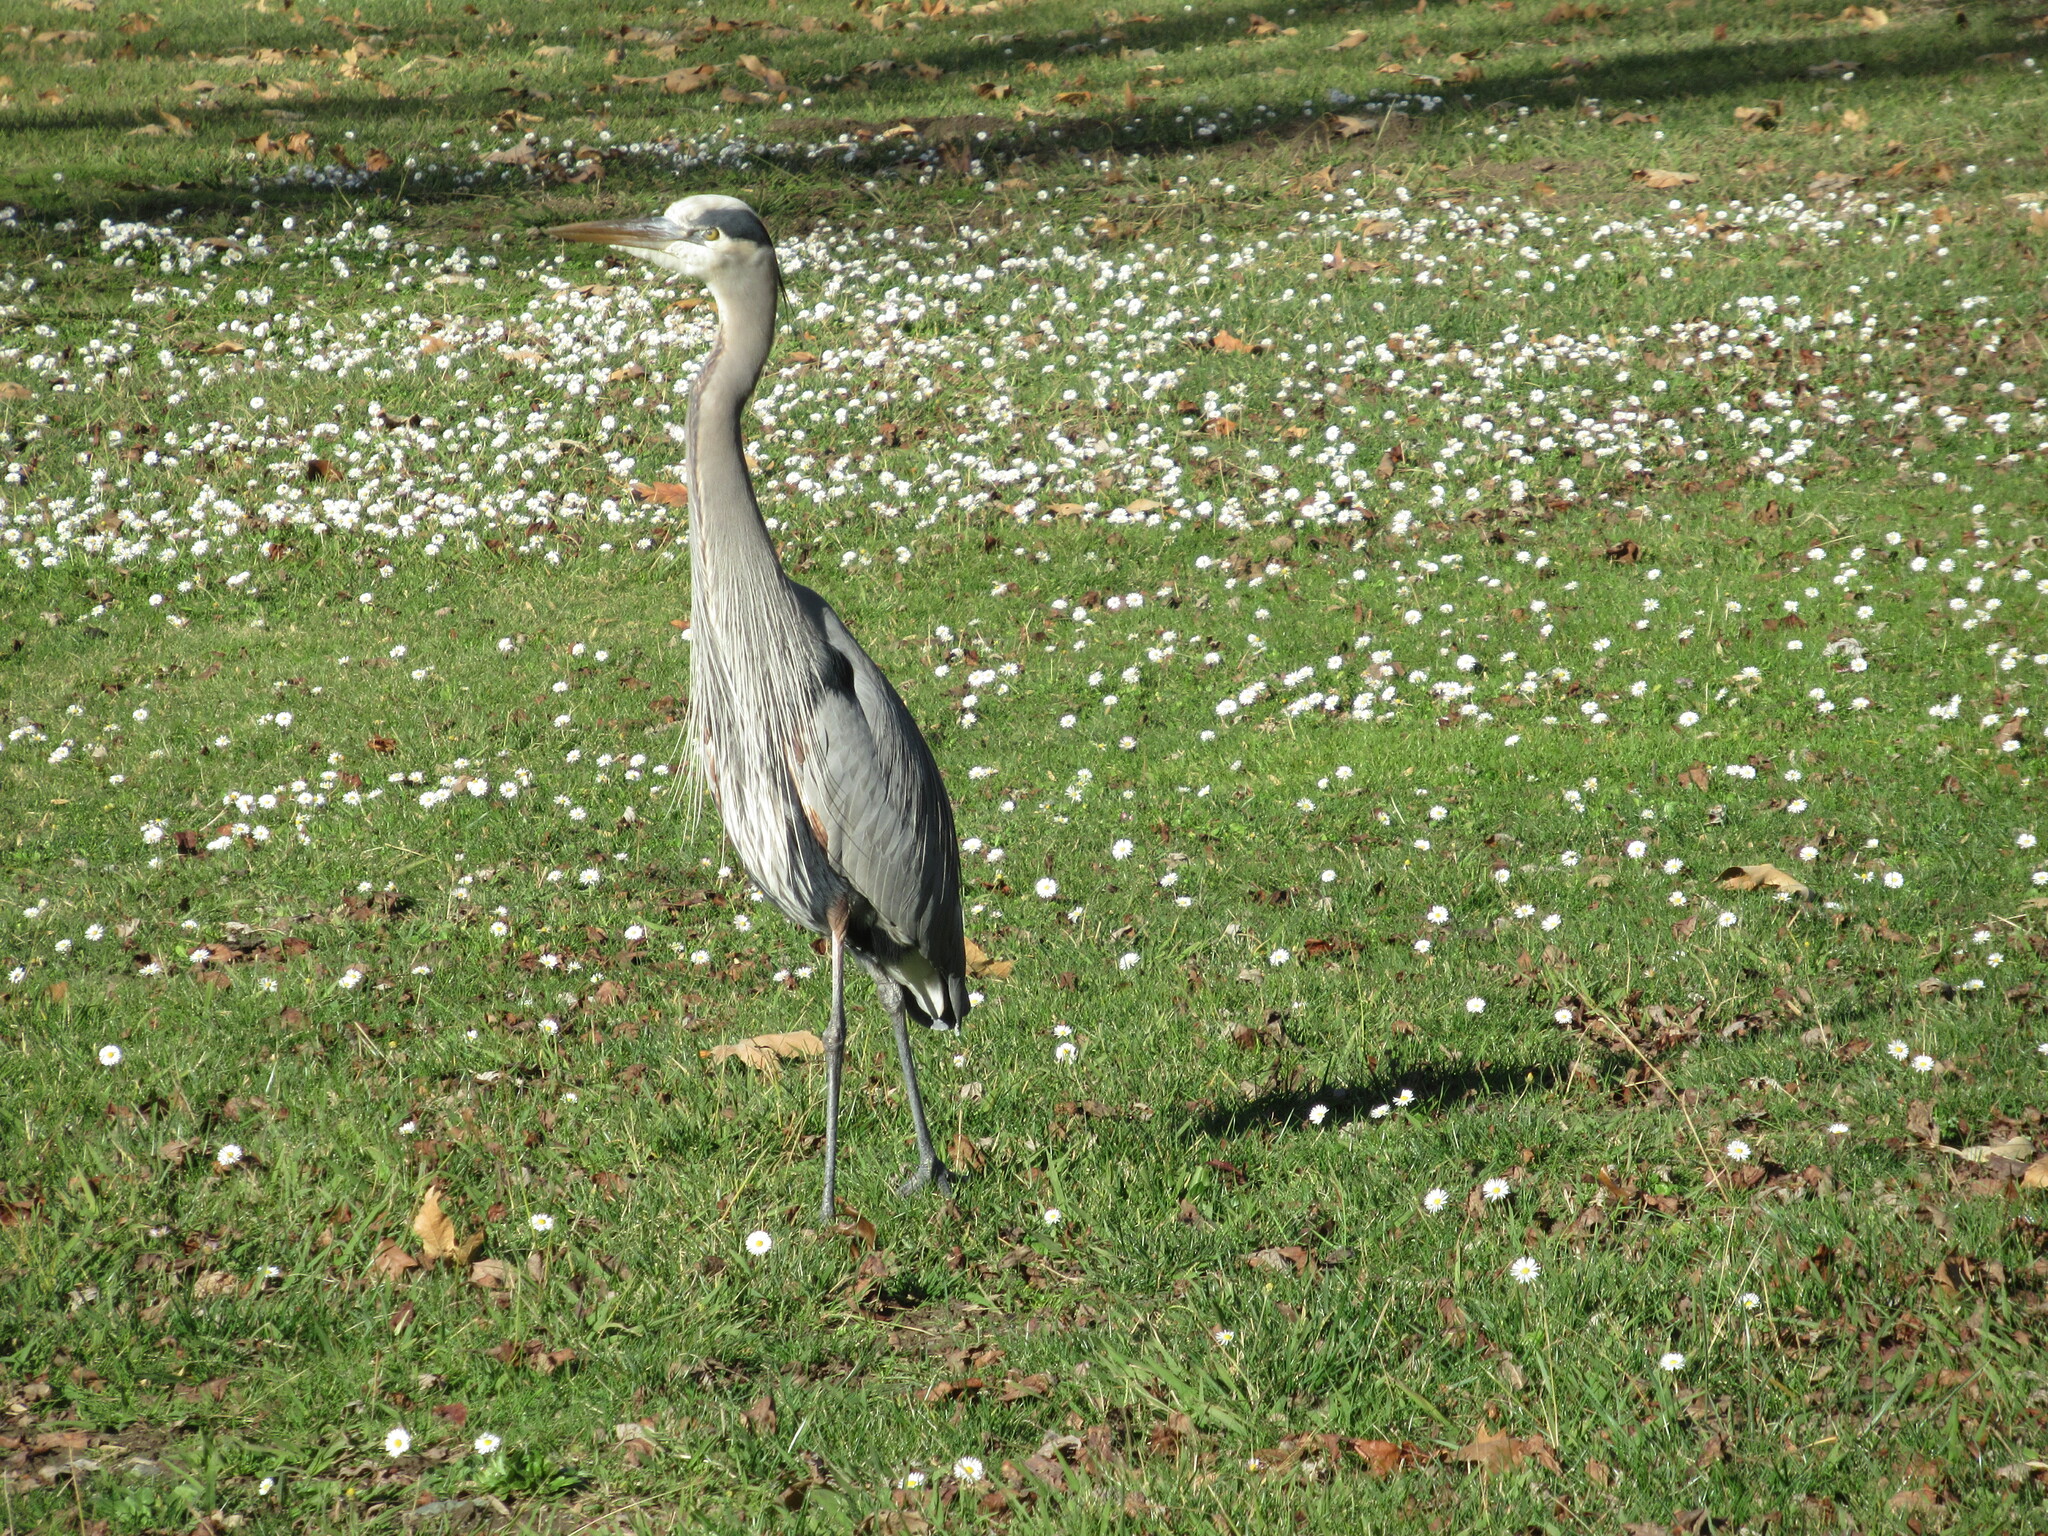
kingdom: Animalia
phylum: Chordata
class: Aves
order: Pelecaniformes
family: Ardeidae
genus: Ardea
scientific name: Ardea herodias
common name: Great blue heron
